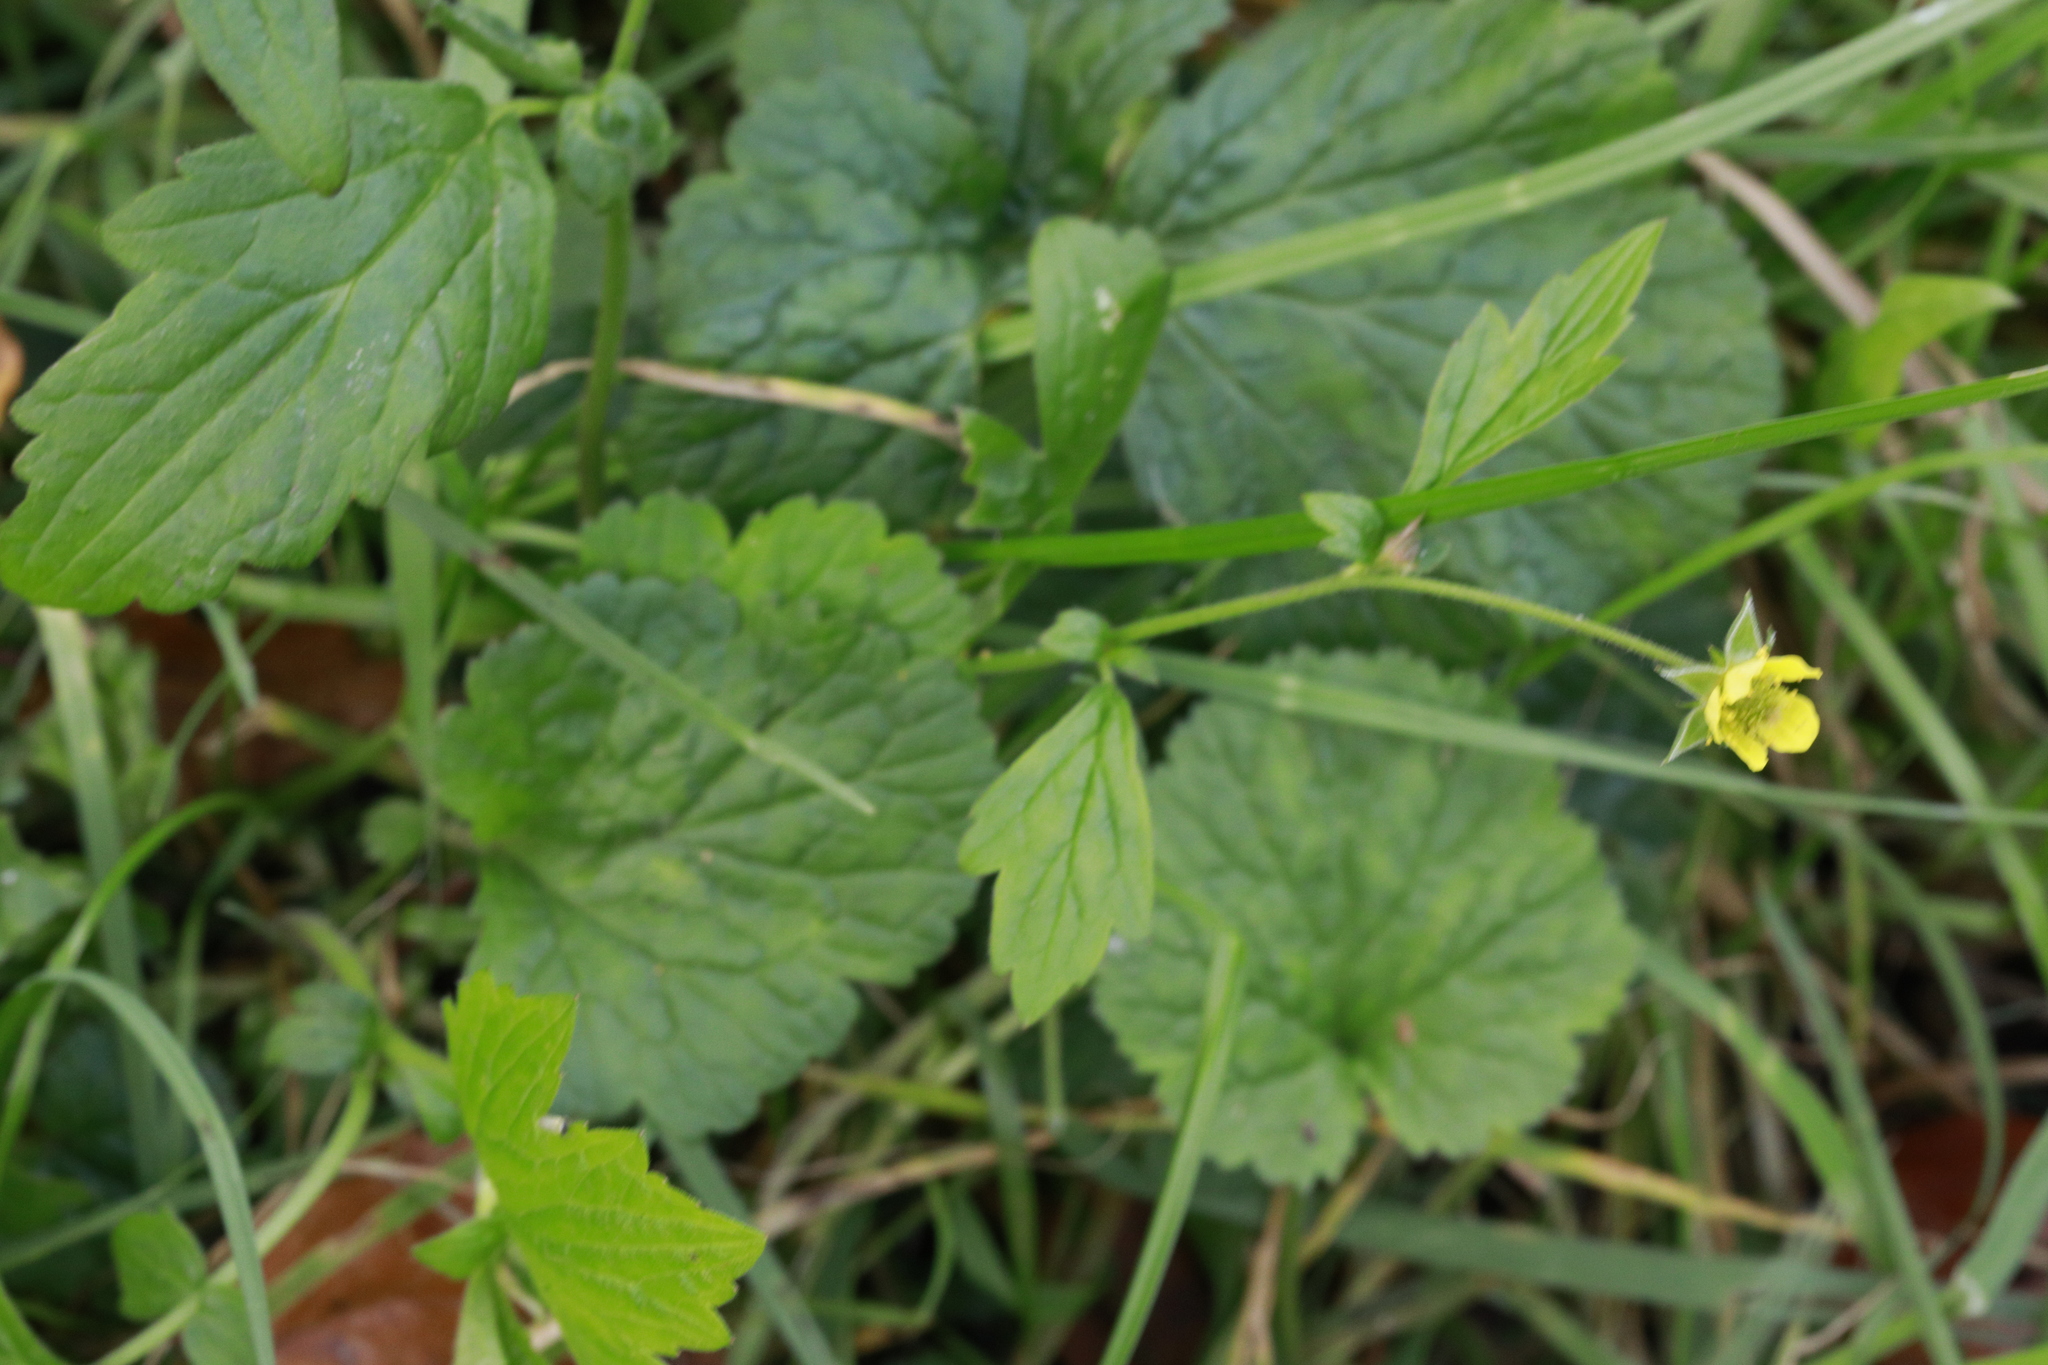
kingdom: Plantae
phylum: Tracheophyta
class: Magnoliopsida
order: Rosales
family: Rosaceae
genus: Geum
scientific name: Geum urbanum
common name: Wood avens
